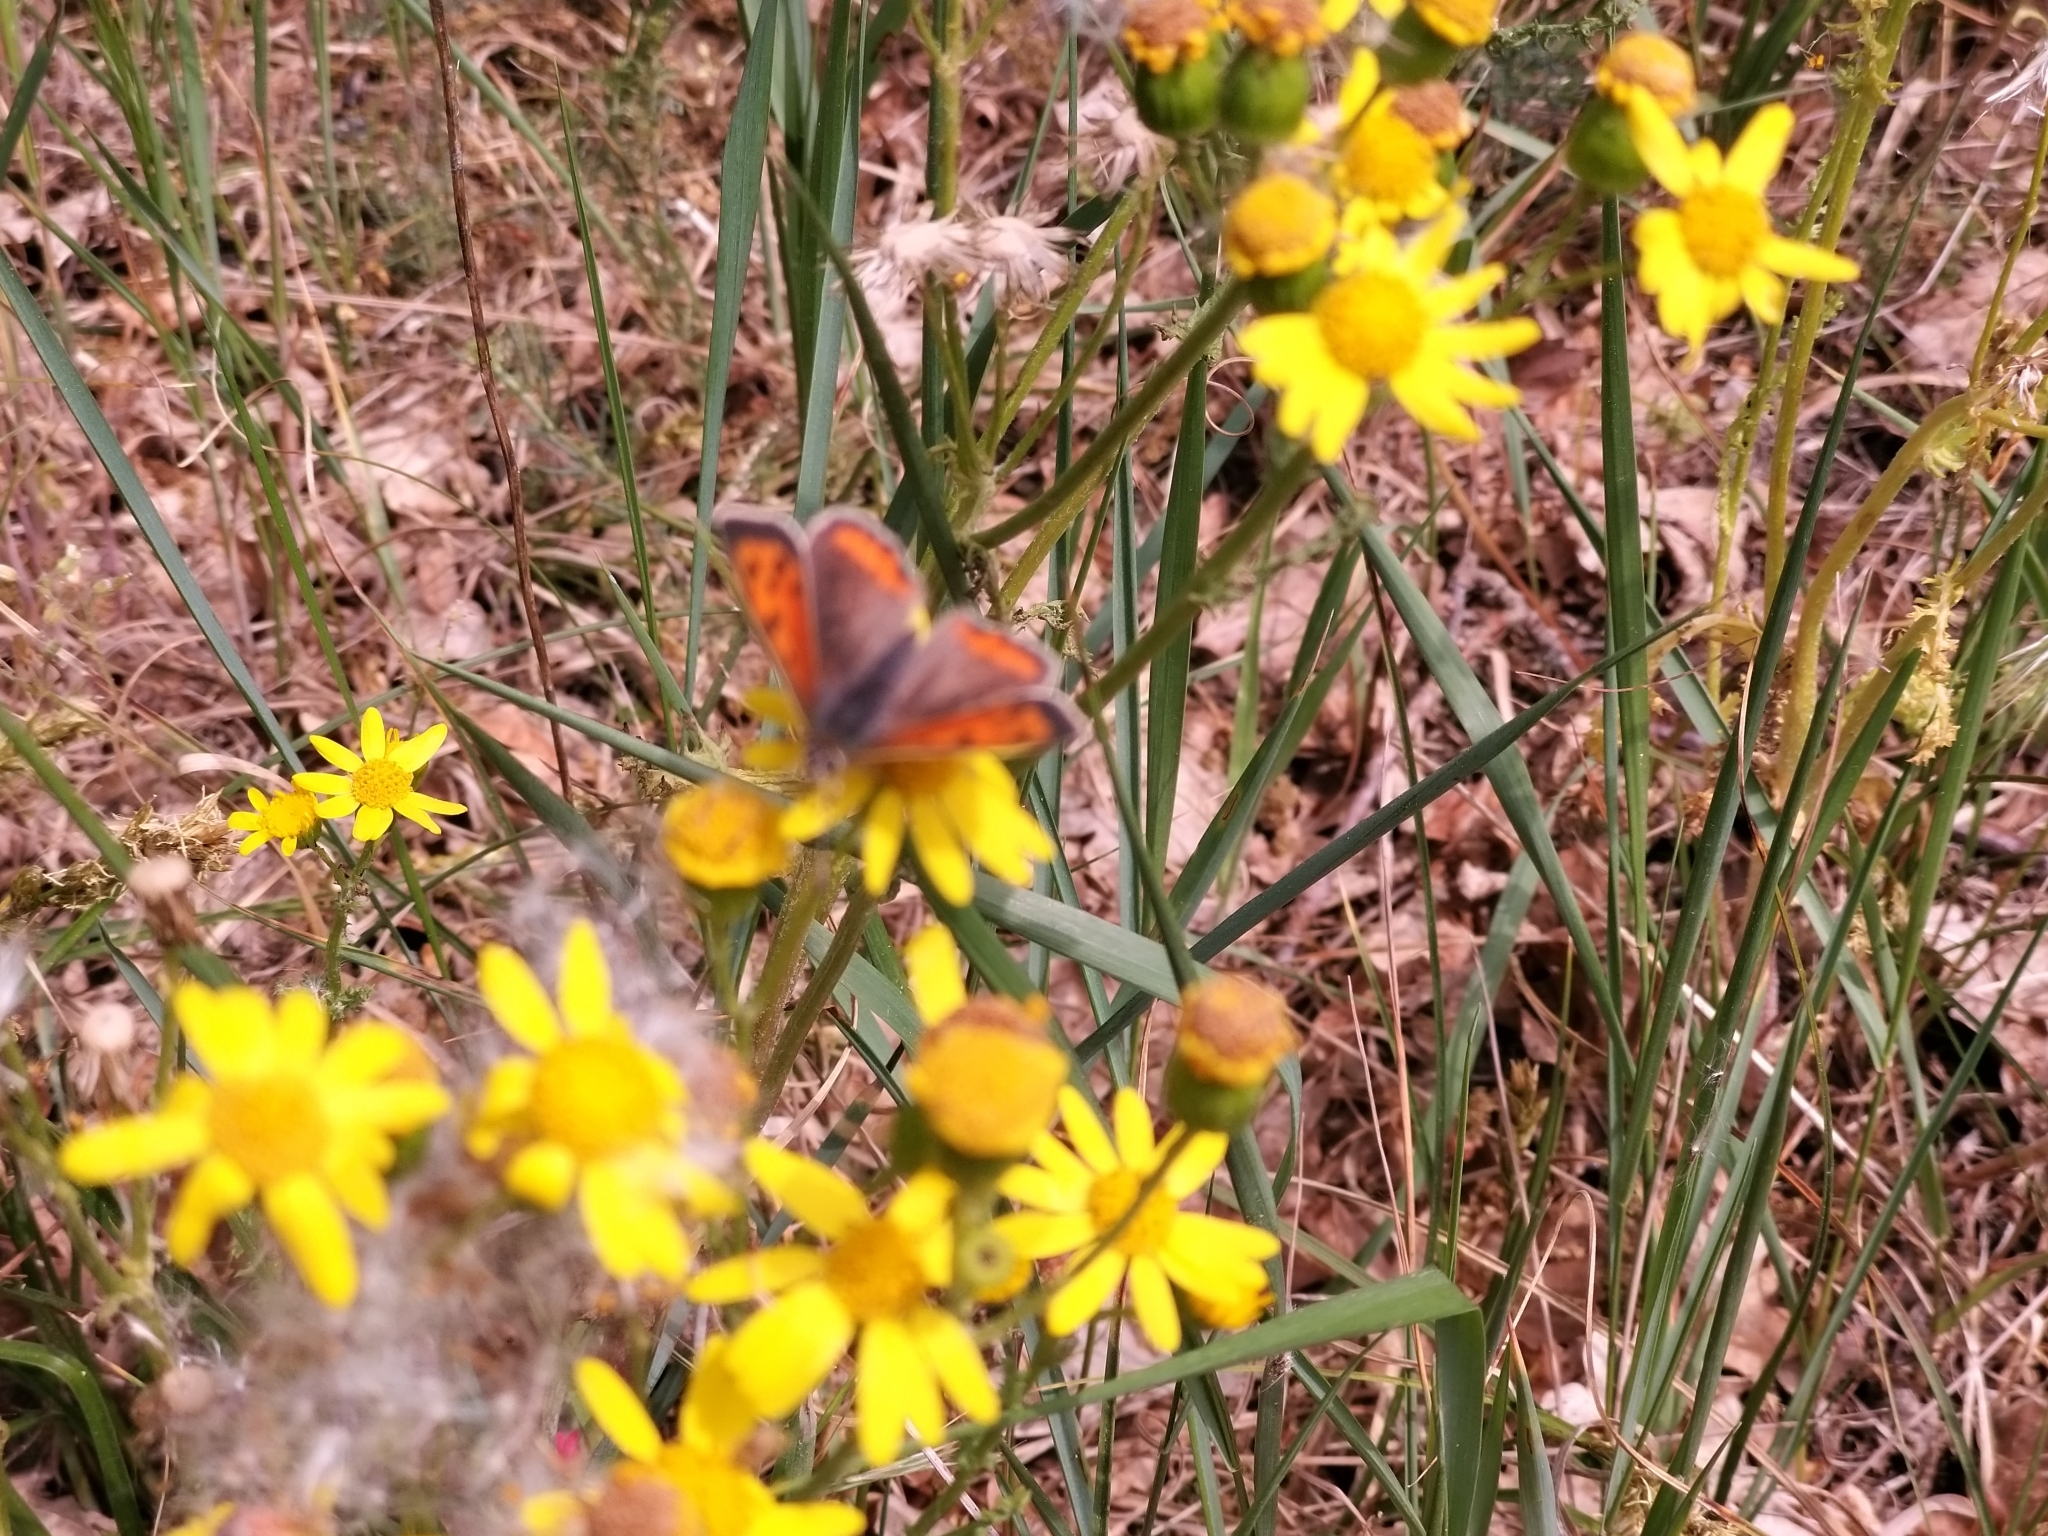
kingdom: Animalia
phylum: Arthropoda
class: Insecta
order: Lepidoptera
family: Lycaenidae
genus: Lycaena
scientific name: Lycaena phlaeas
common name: Small copper
